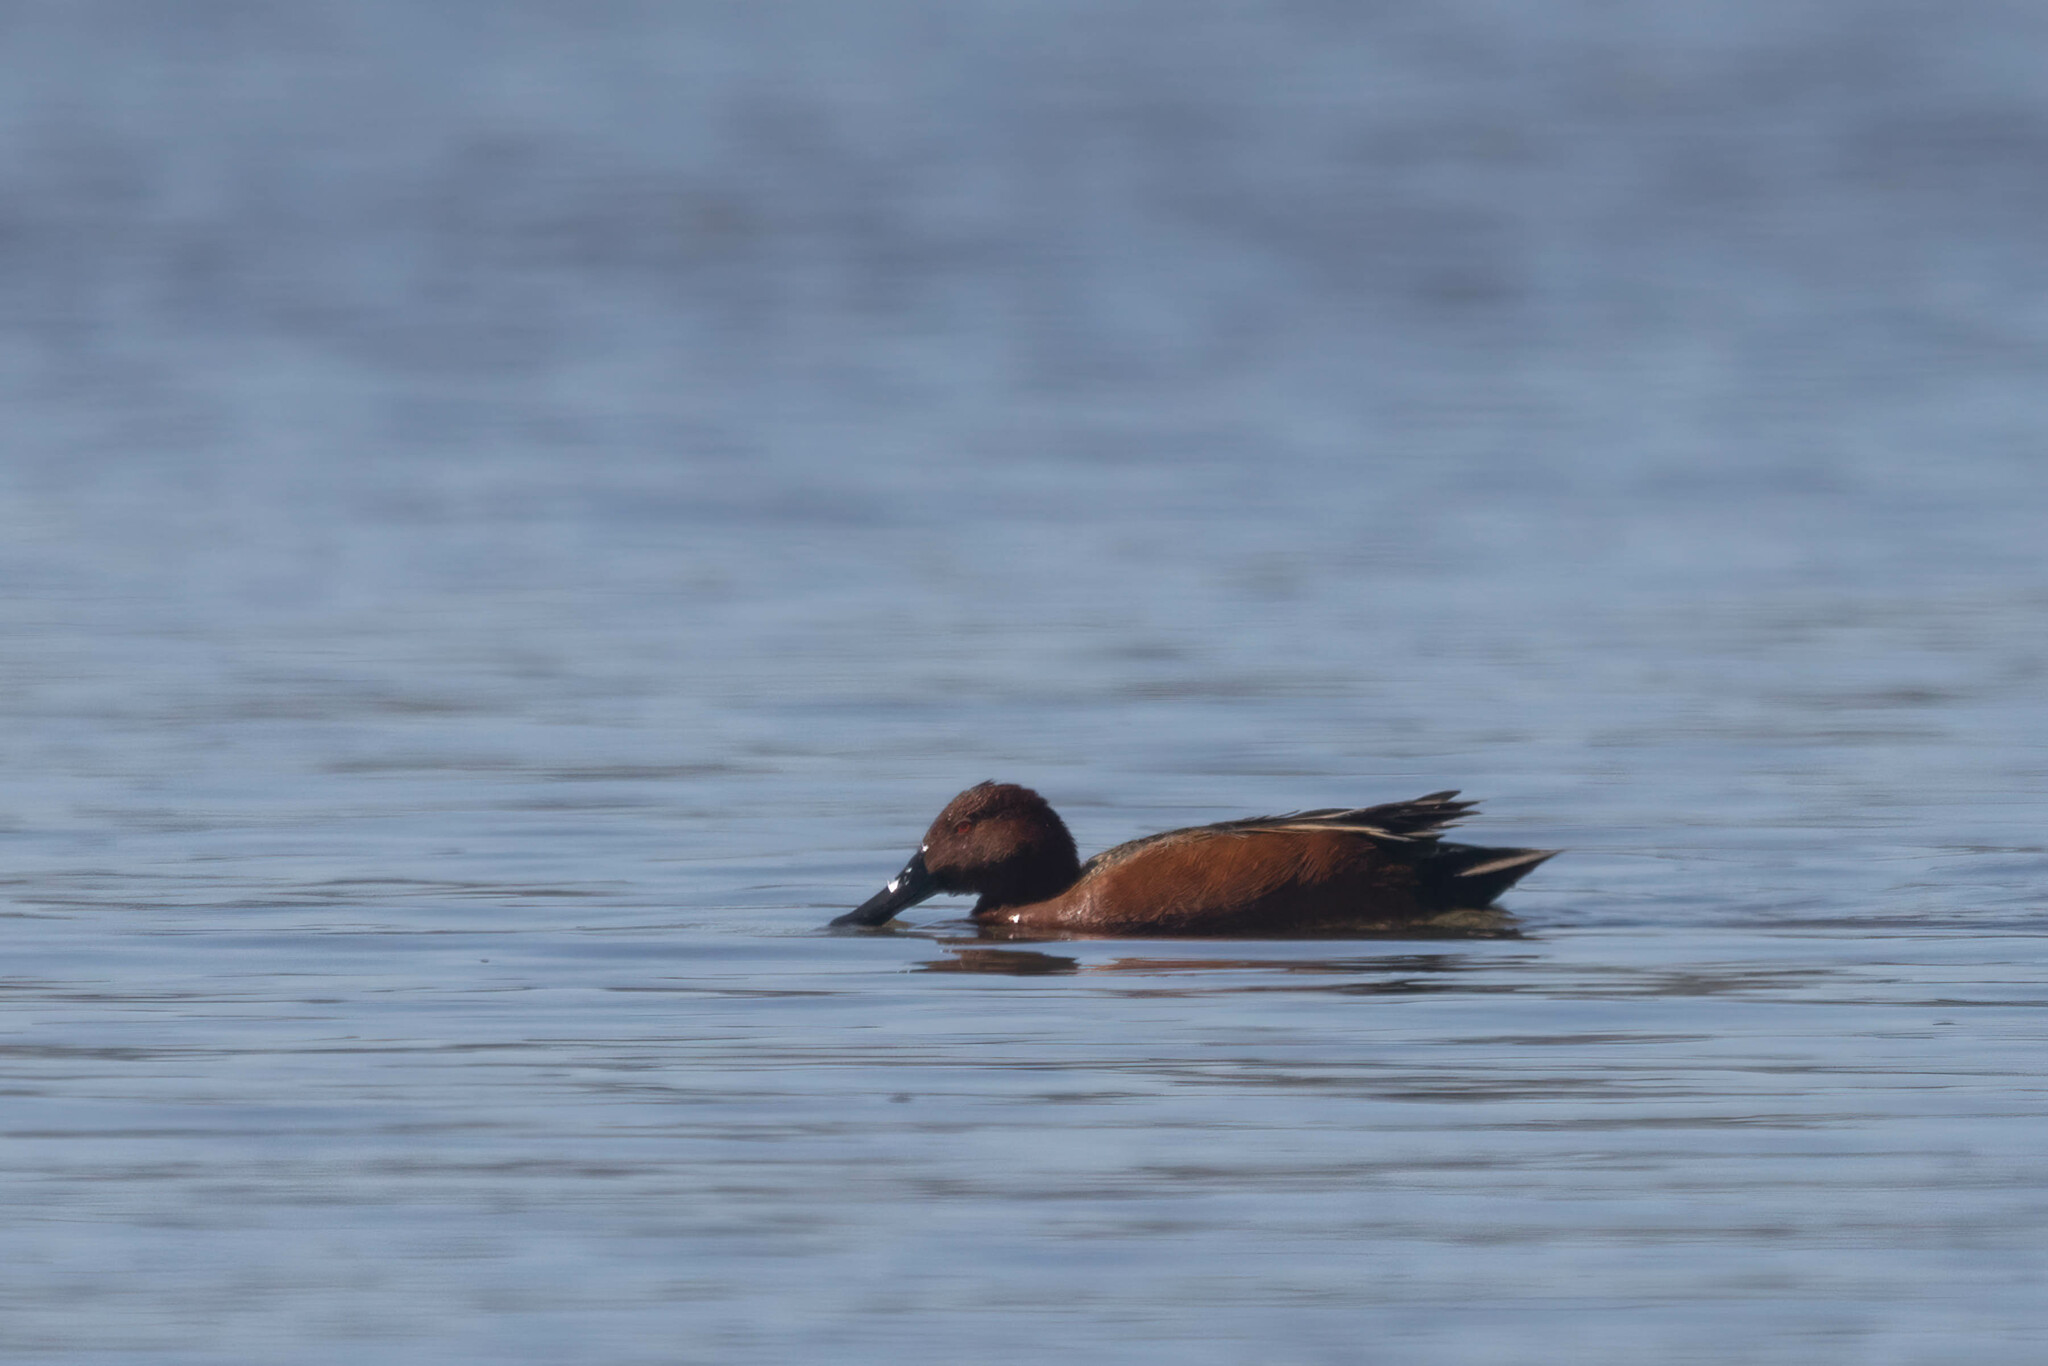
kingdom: Animalia
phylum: Chordata
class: Aves
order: Anseriformes
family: Anatidae
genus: Spatula
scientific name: Spatula cyanoptera
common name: Cinnamon teal
